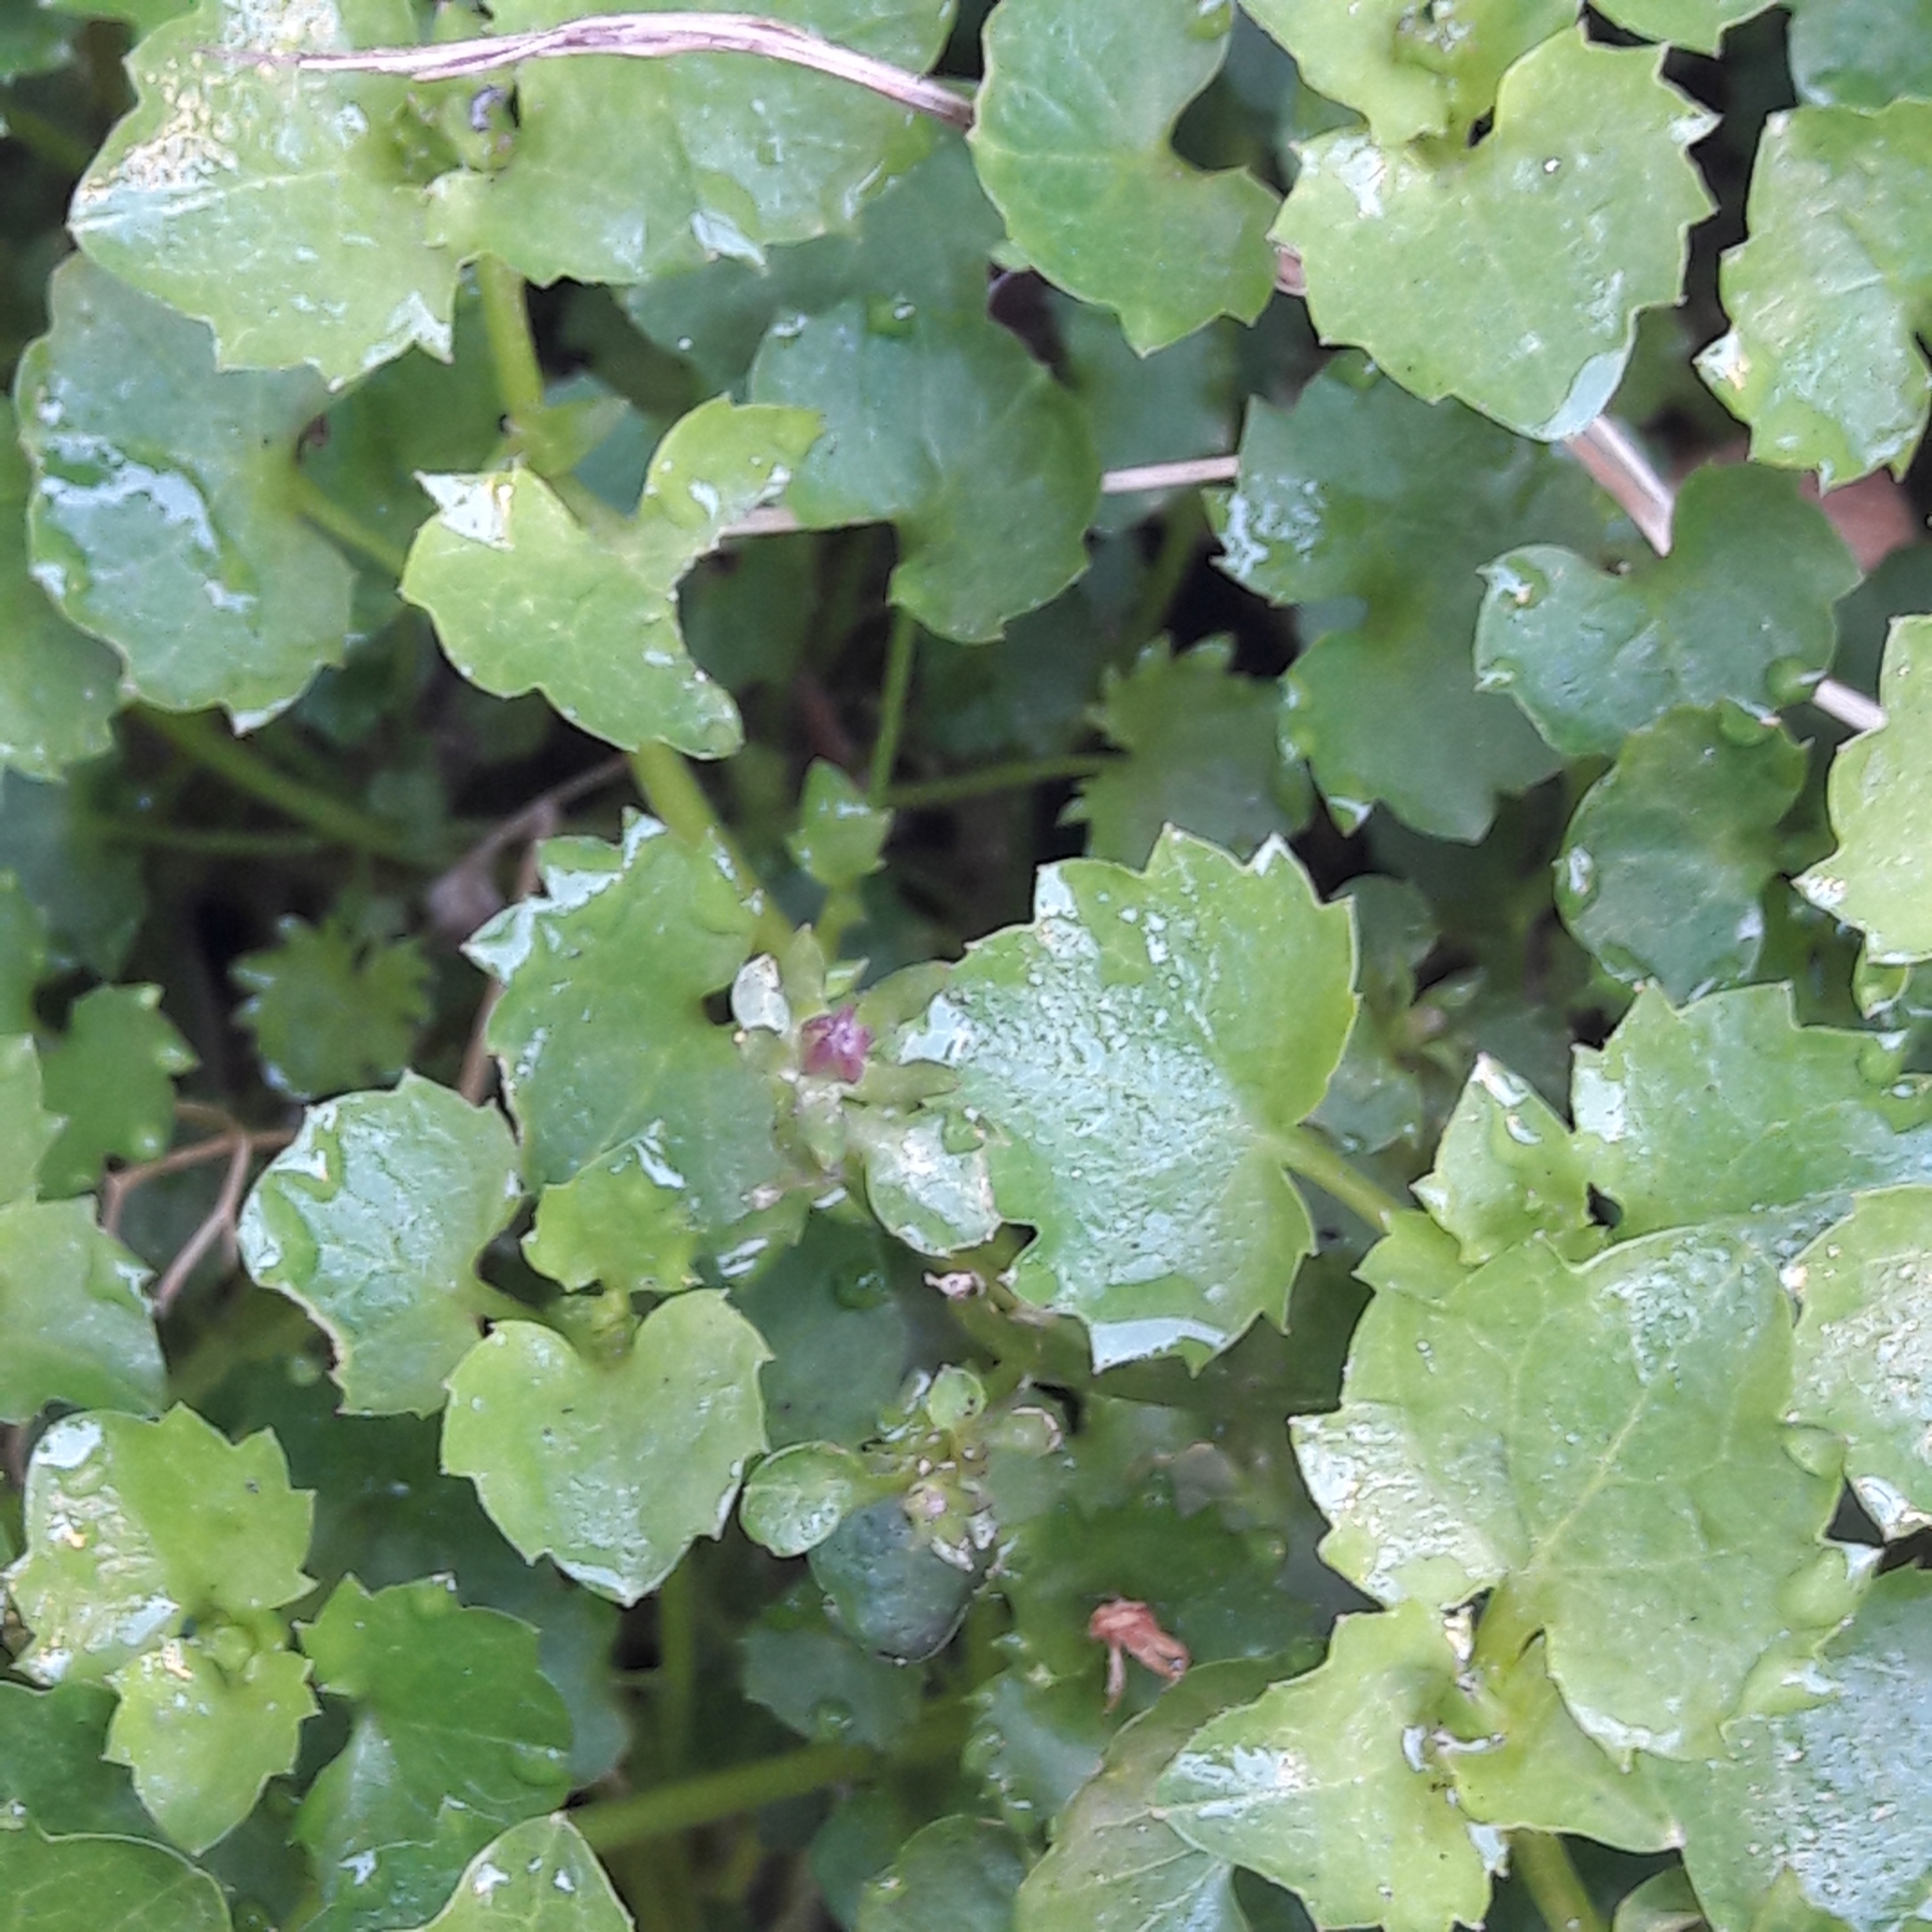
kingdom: Plantae
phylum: Tracheophyta
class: Magnoliopsida
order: Lamiales
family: Plantaginaceae
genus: Cymbalaria
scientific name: Cymbalaria muralis
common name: Ivy-leaved toadflax
